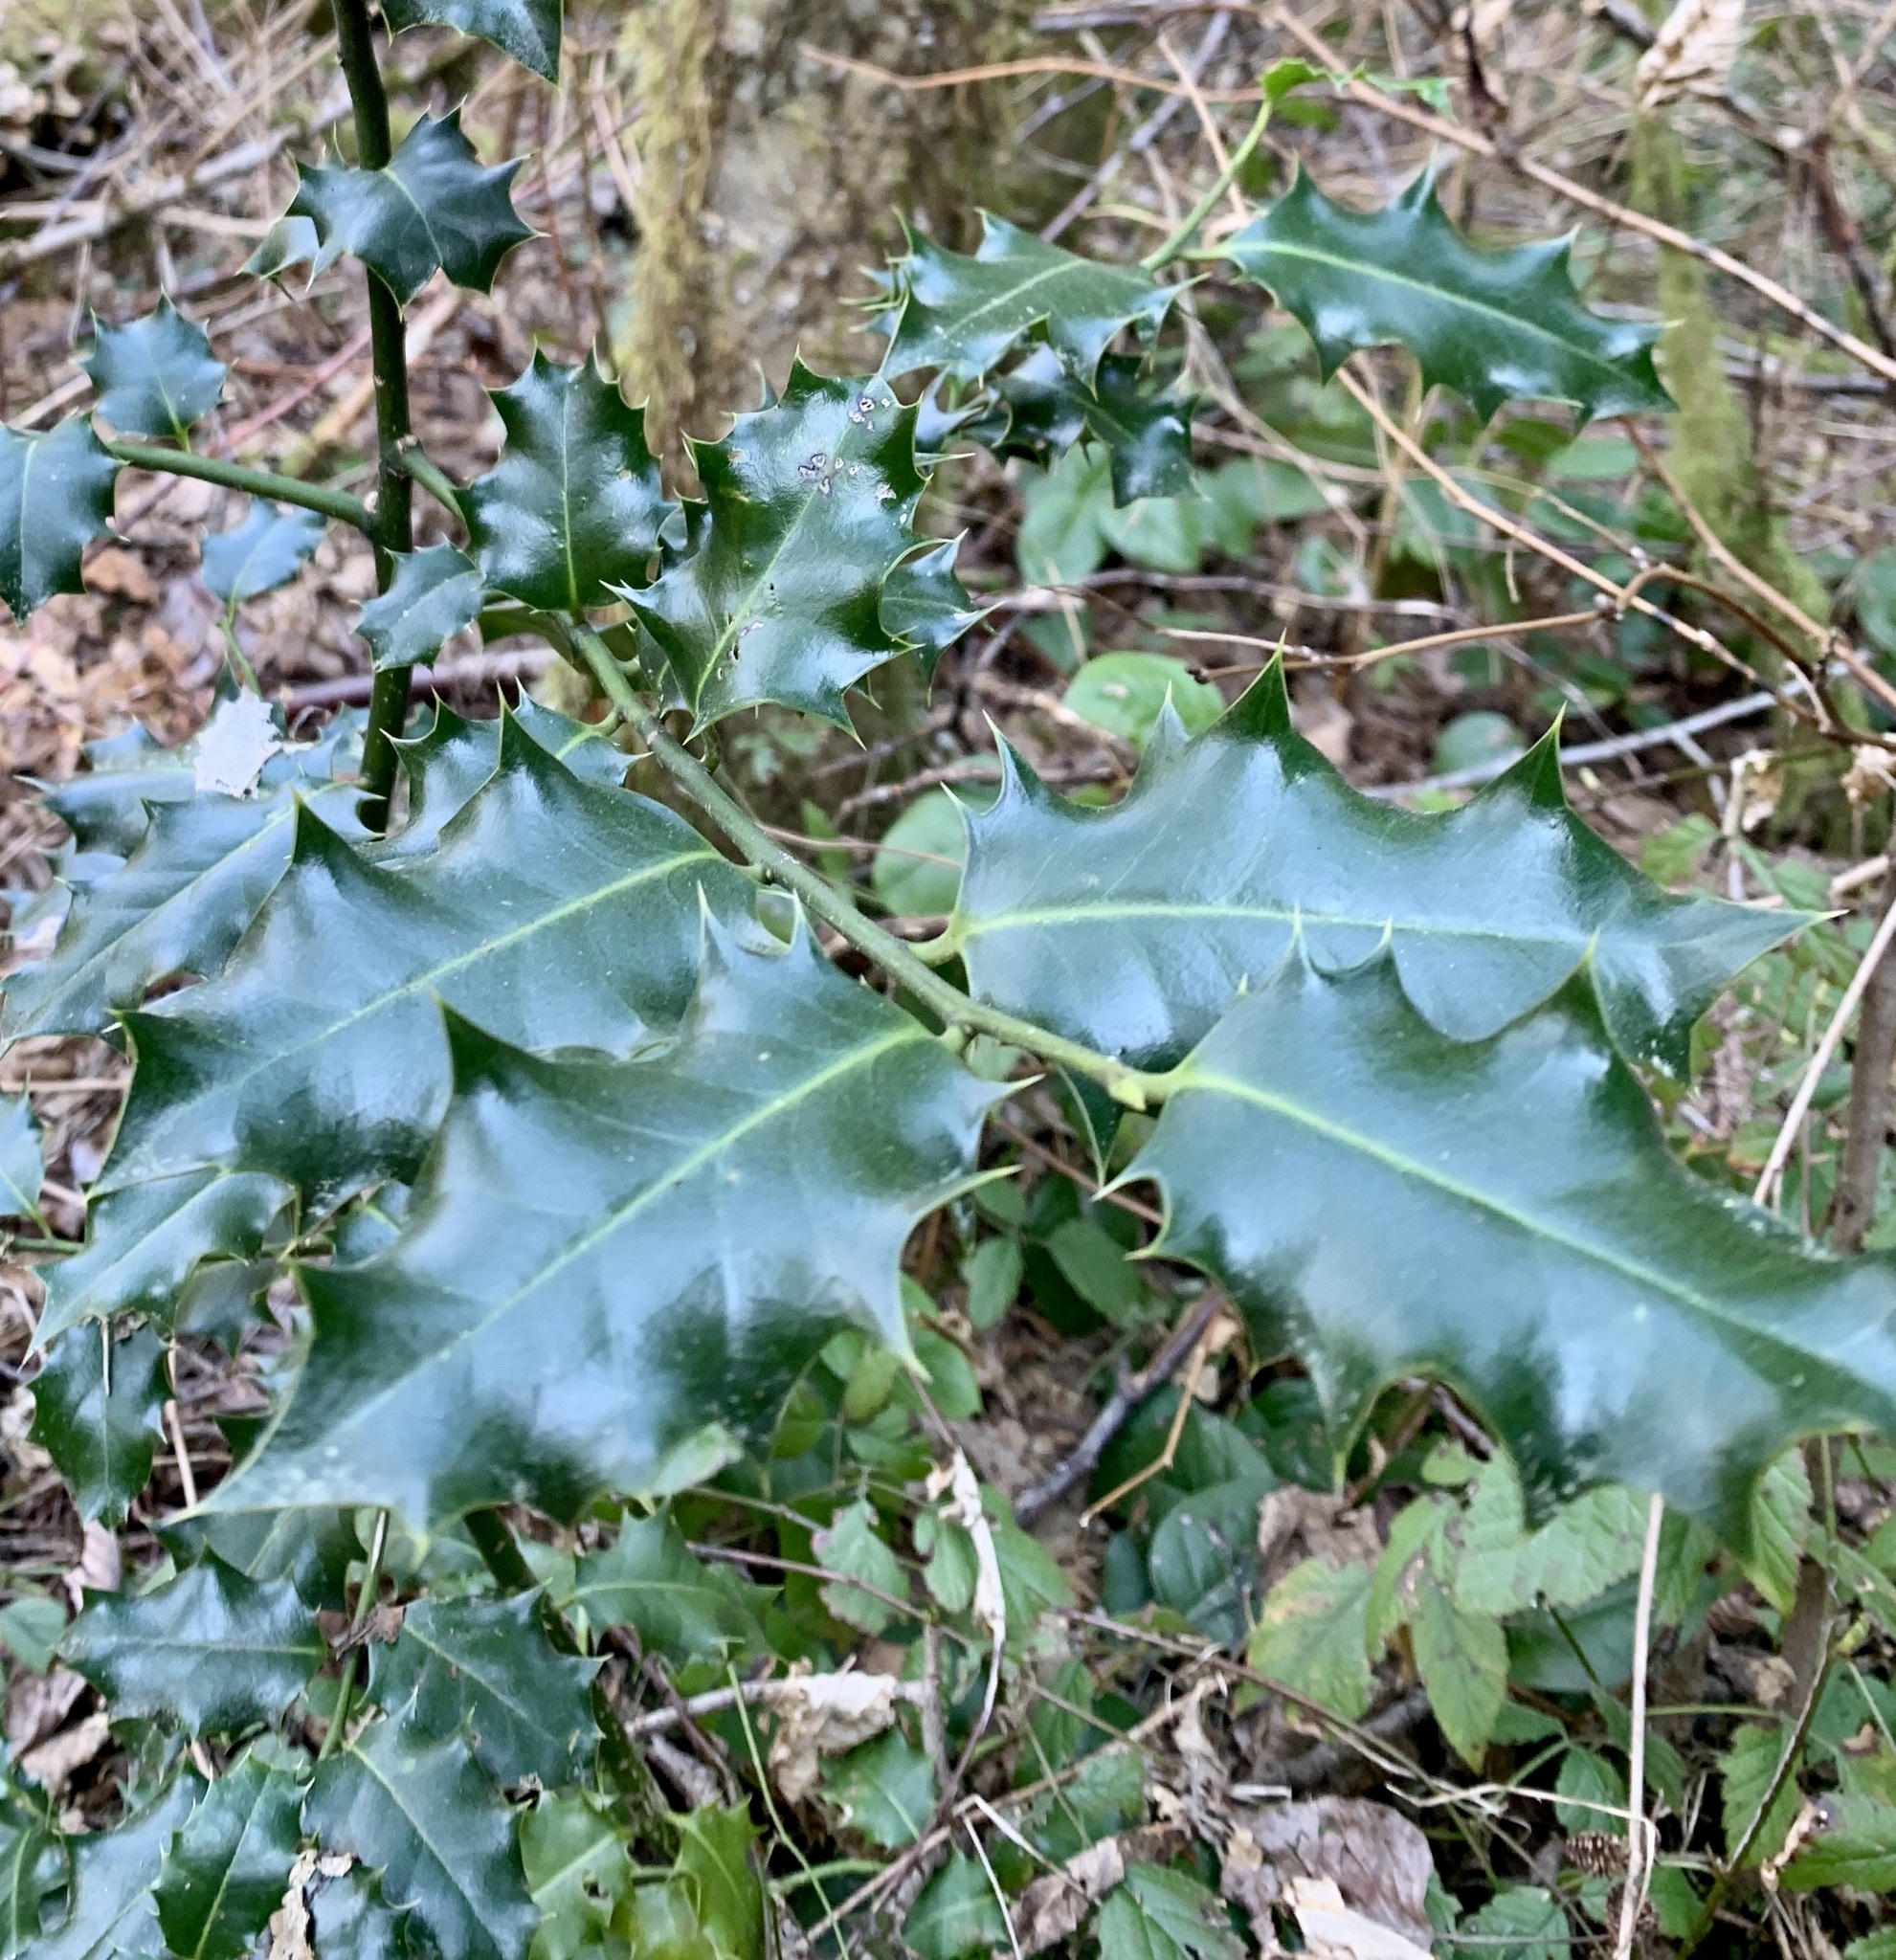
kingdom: Plantae
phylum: Tracheophyta
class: Magnoliopsida
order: Aquifoliales
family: Aquifoliaceae
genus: Ilex
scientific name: Ilex aquifolium
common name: English holly
